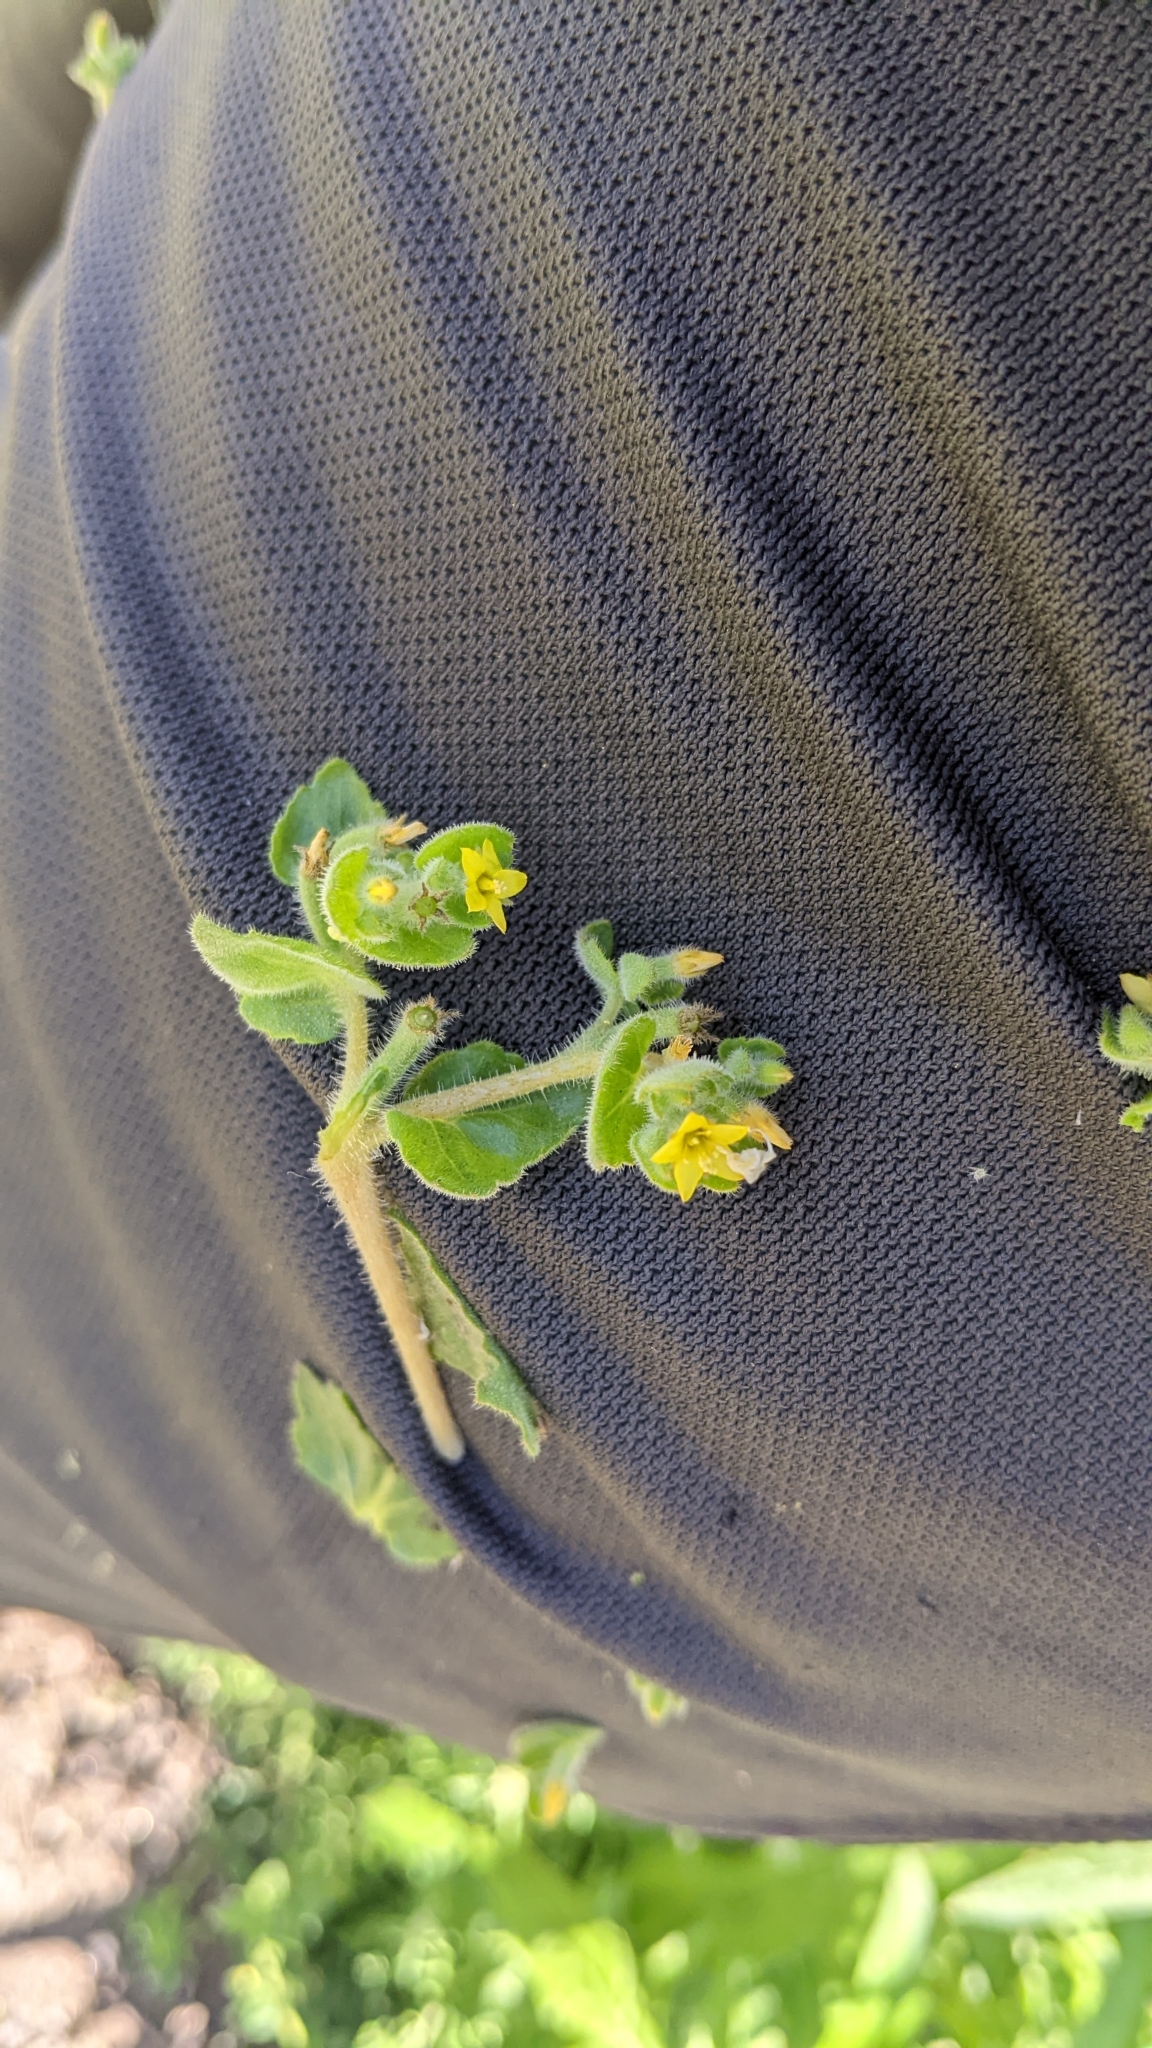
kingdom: Plantae
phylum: Tracheophyta
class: Magnoliopsida
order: Cornales
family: Loasaceae
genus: Mentzelia
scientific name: Mentzelia micrantha
